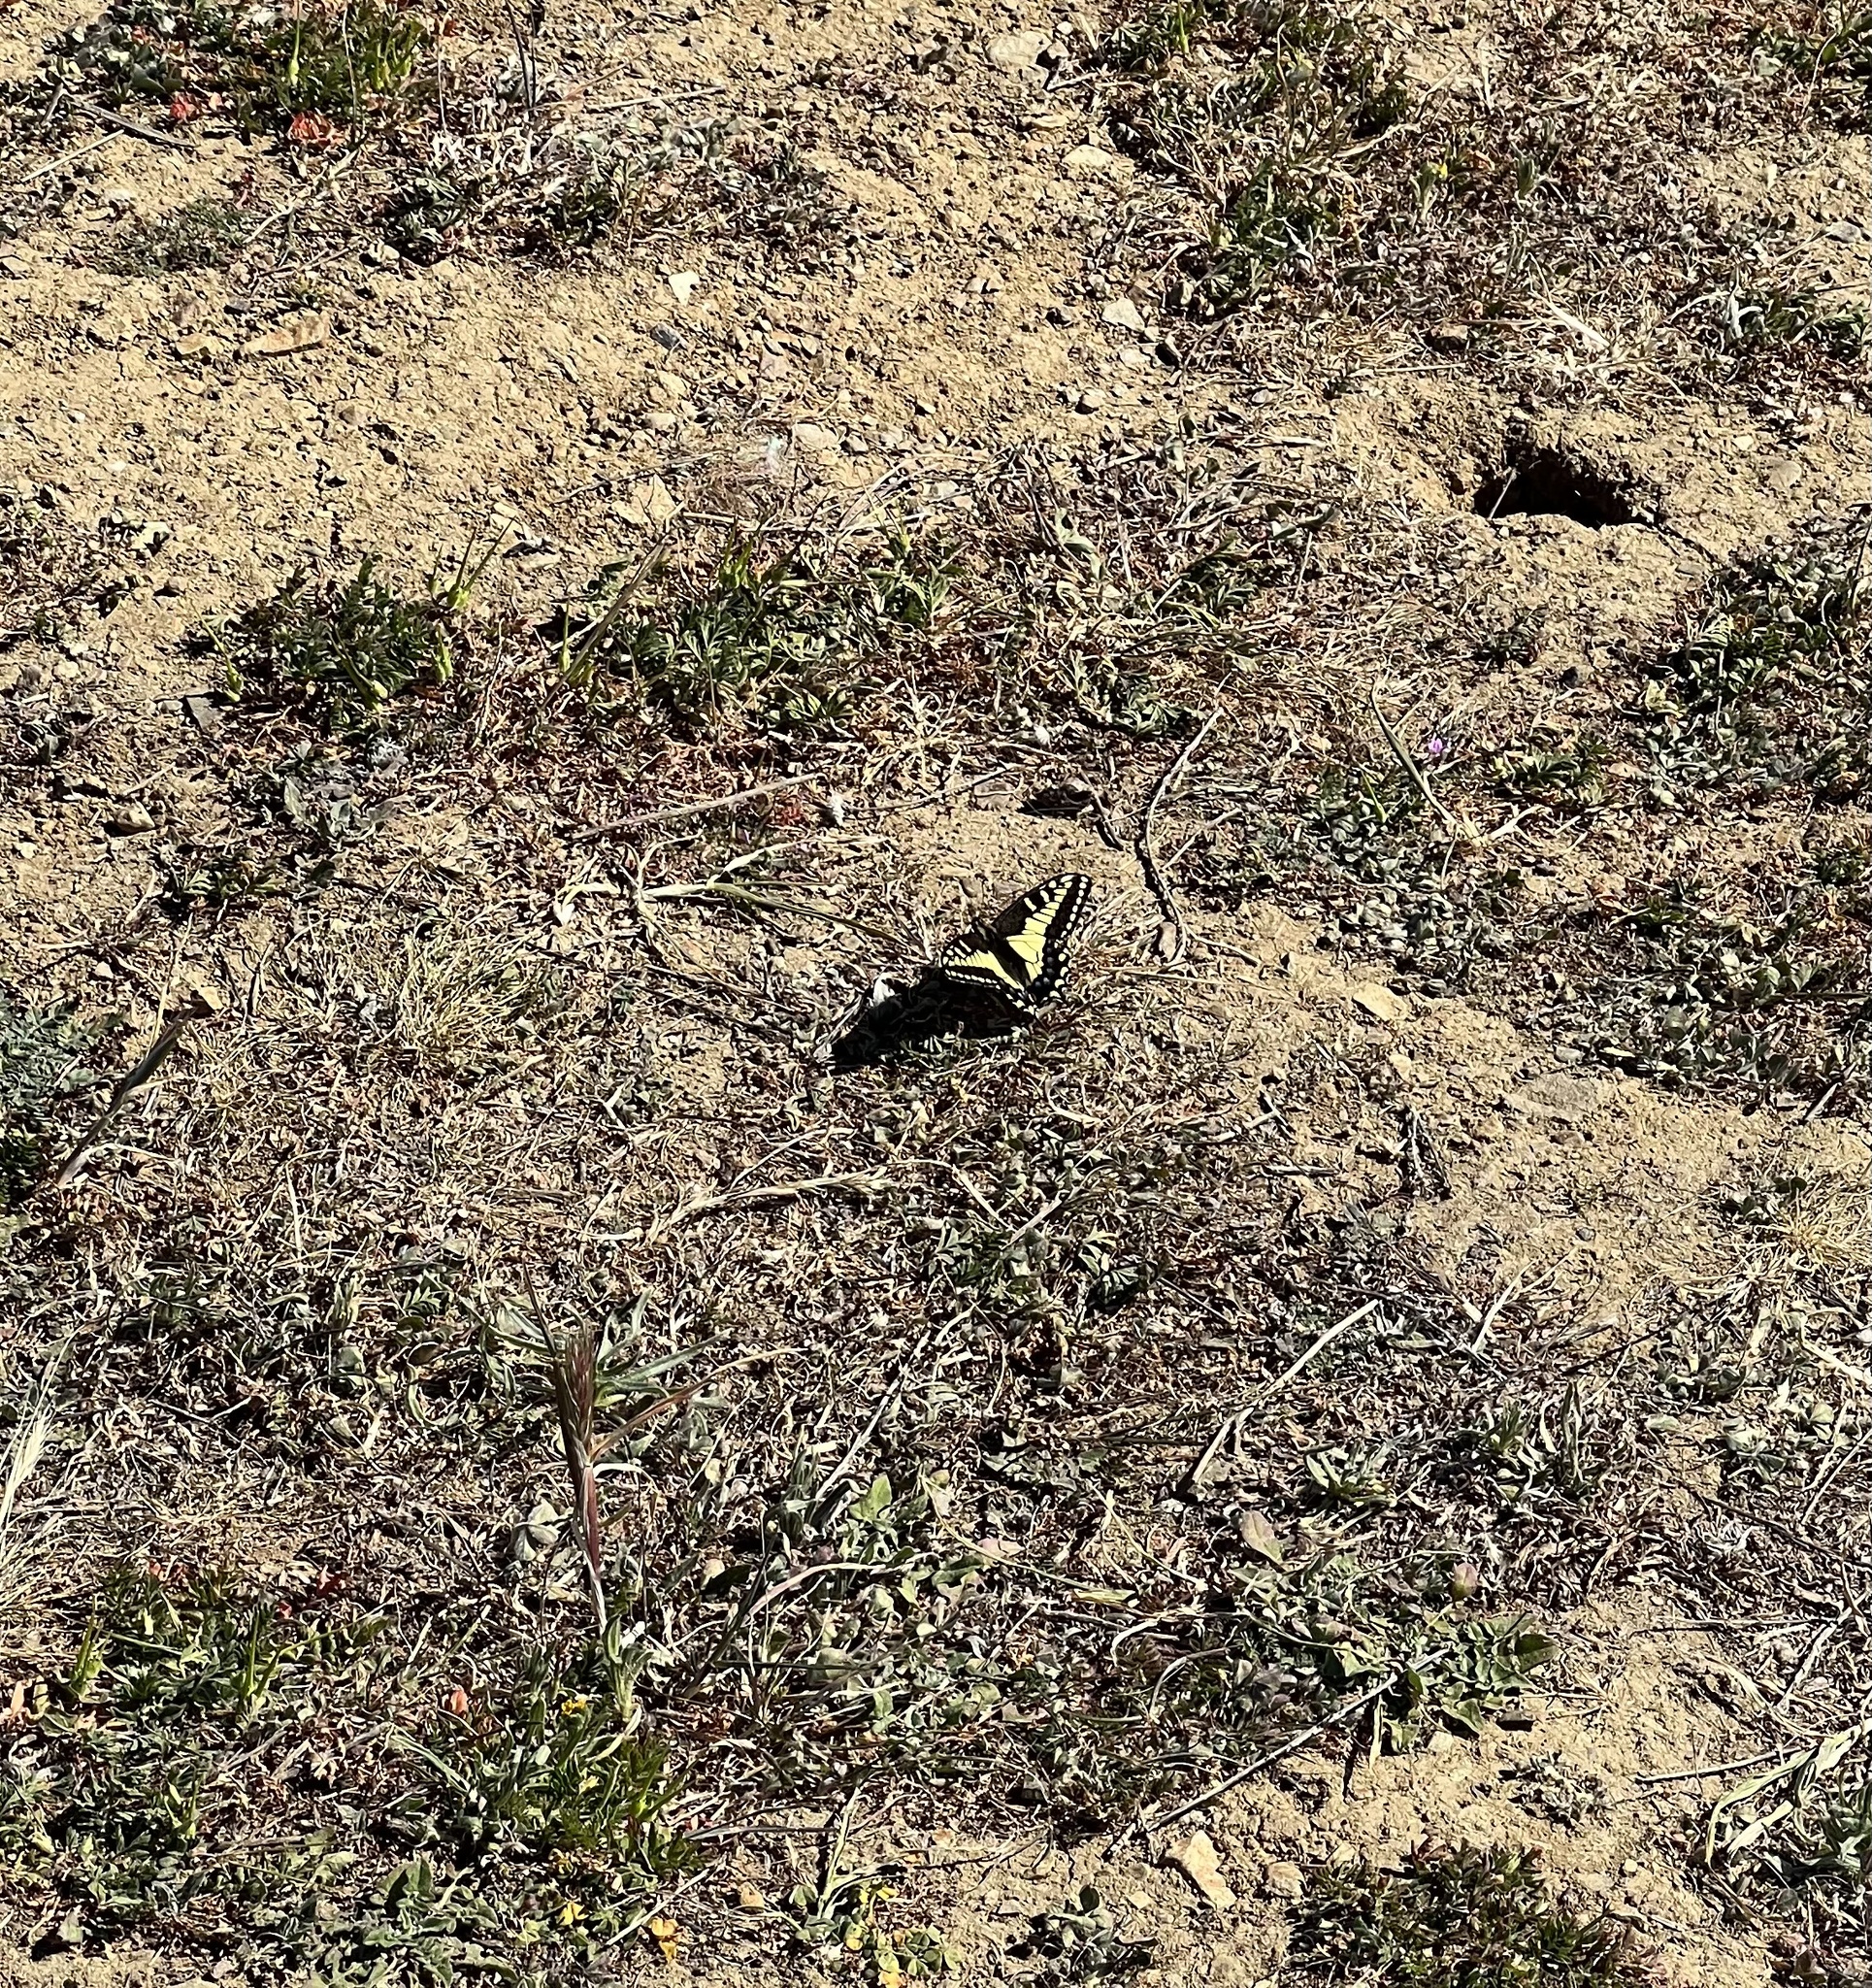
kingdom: Animalia
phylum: Arthropoda
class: Insecta
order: Lepidoptera
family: Papilionidae
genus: Papilio
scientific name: Papilio zelicaon
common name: Anise swallowtail
